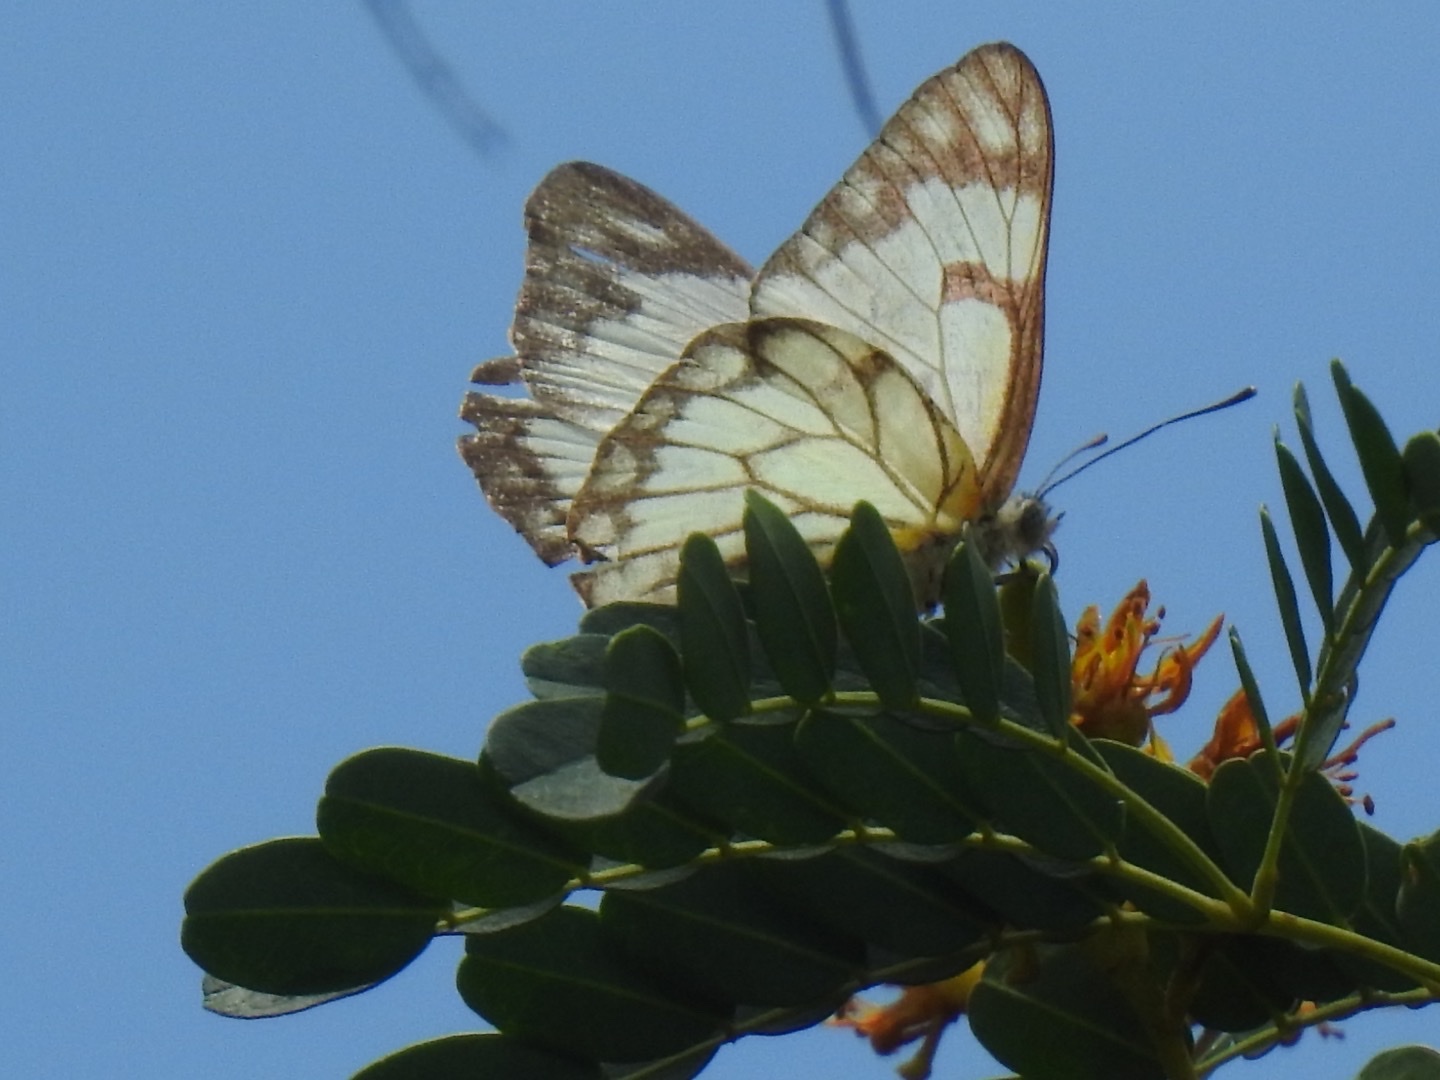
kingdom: Animalia
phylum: Arthropoda
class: Insecta
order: Lepidoptera
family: Pieridae
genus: Belenois
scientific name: Belenois aurota
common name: Brown-veined white
